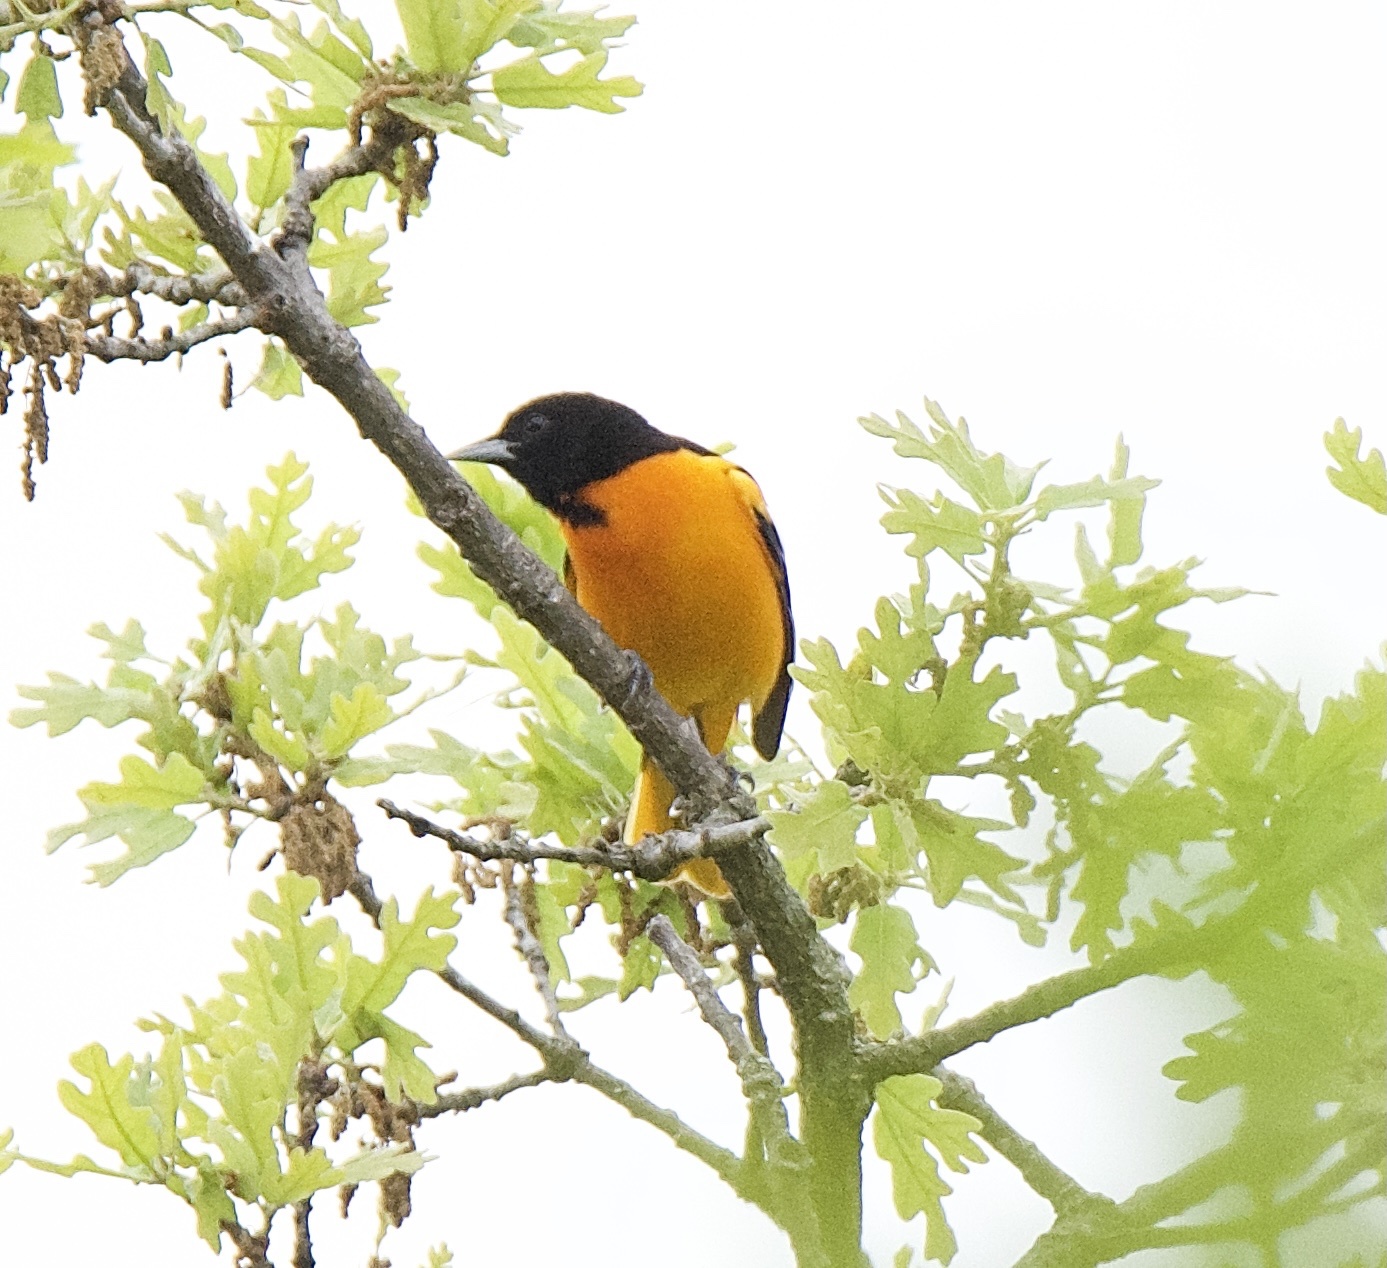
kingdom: Animalia
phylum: Chordata
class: Aves
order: Passeriformes
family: Icteridae
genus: Icterus
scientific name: Icterus galbula
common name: Baltimore oriole
